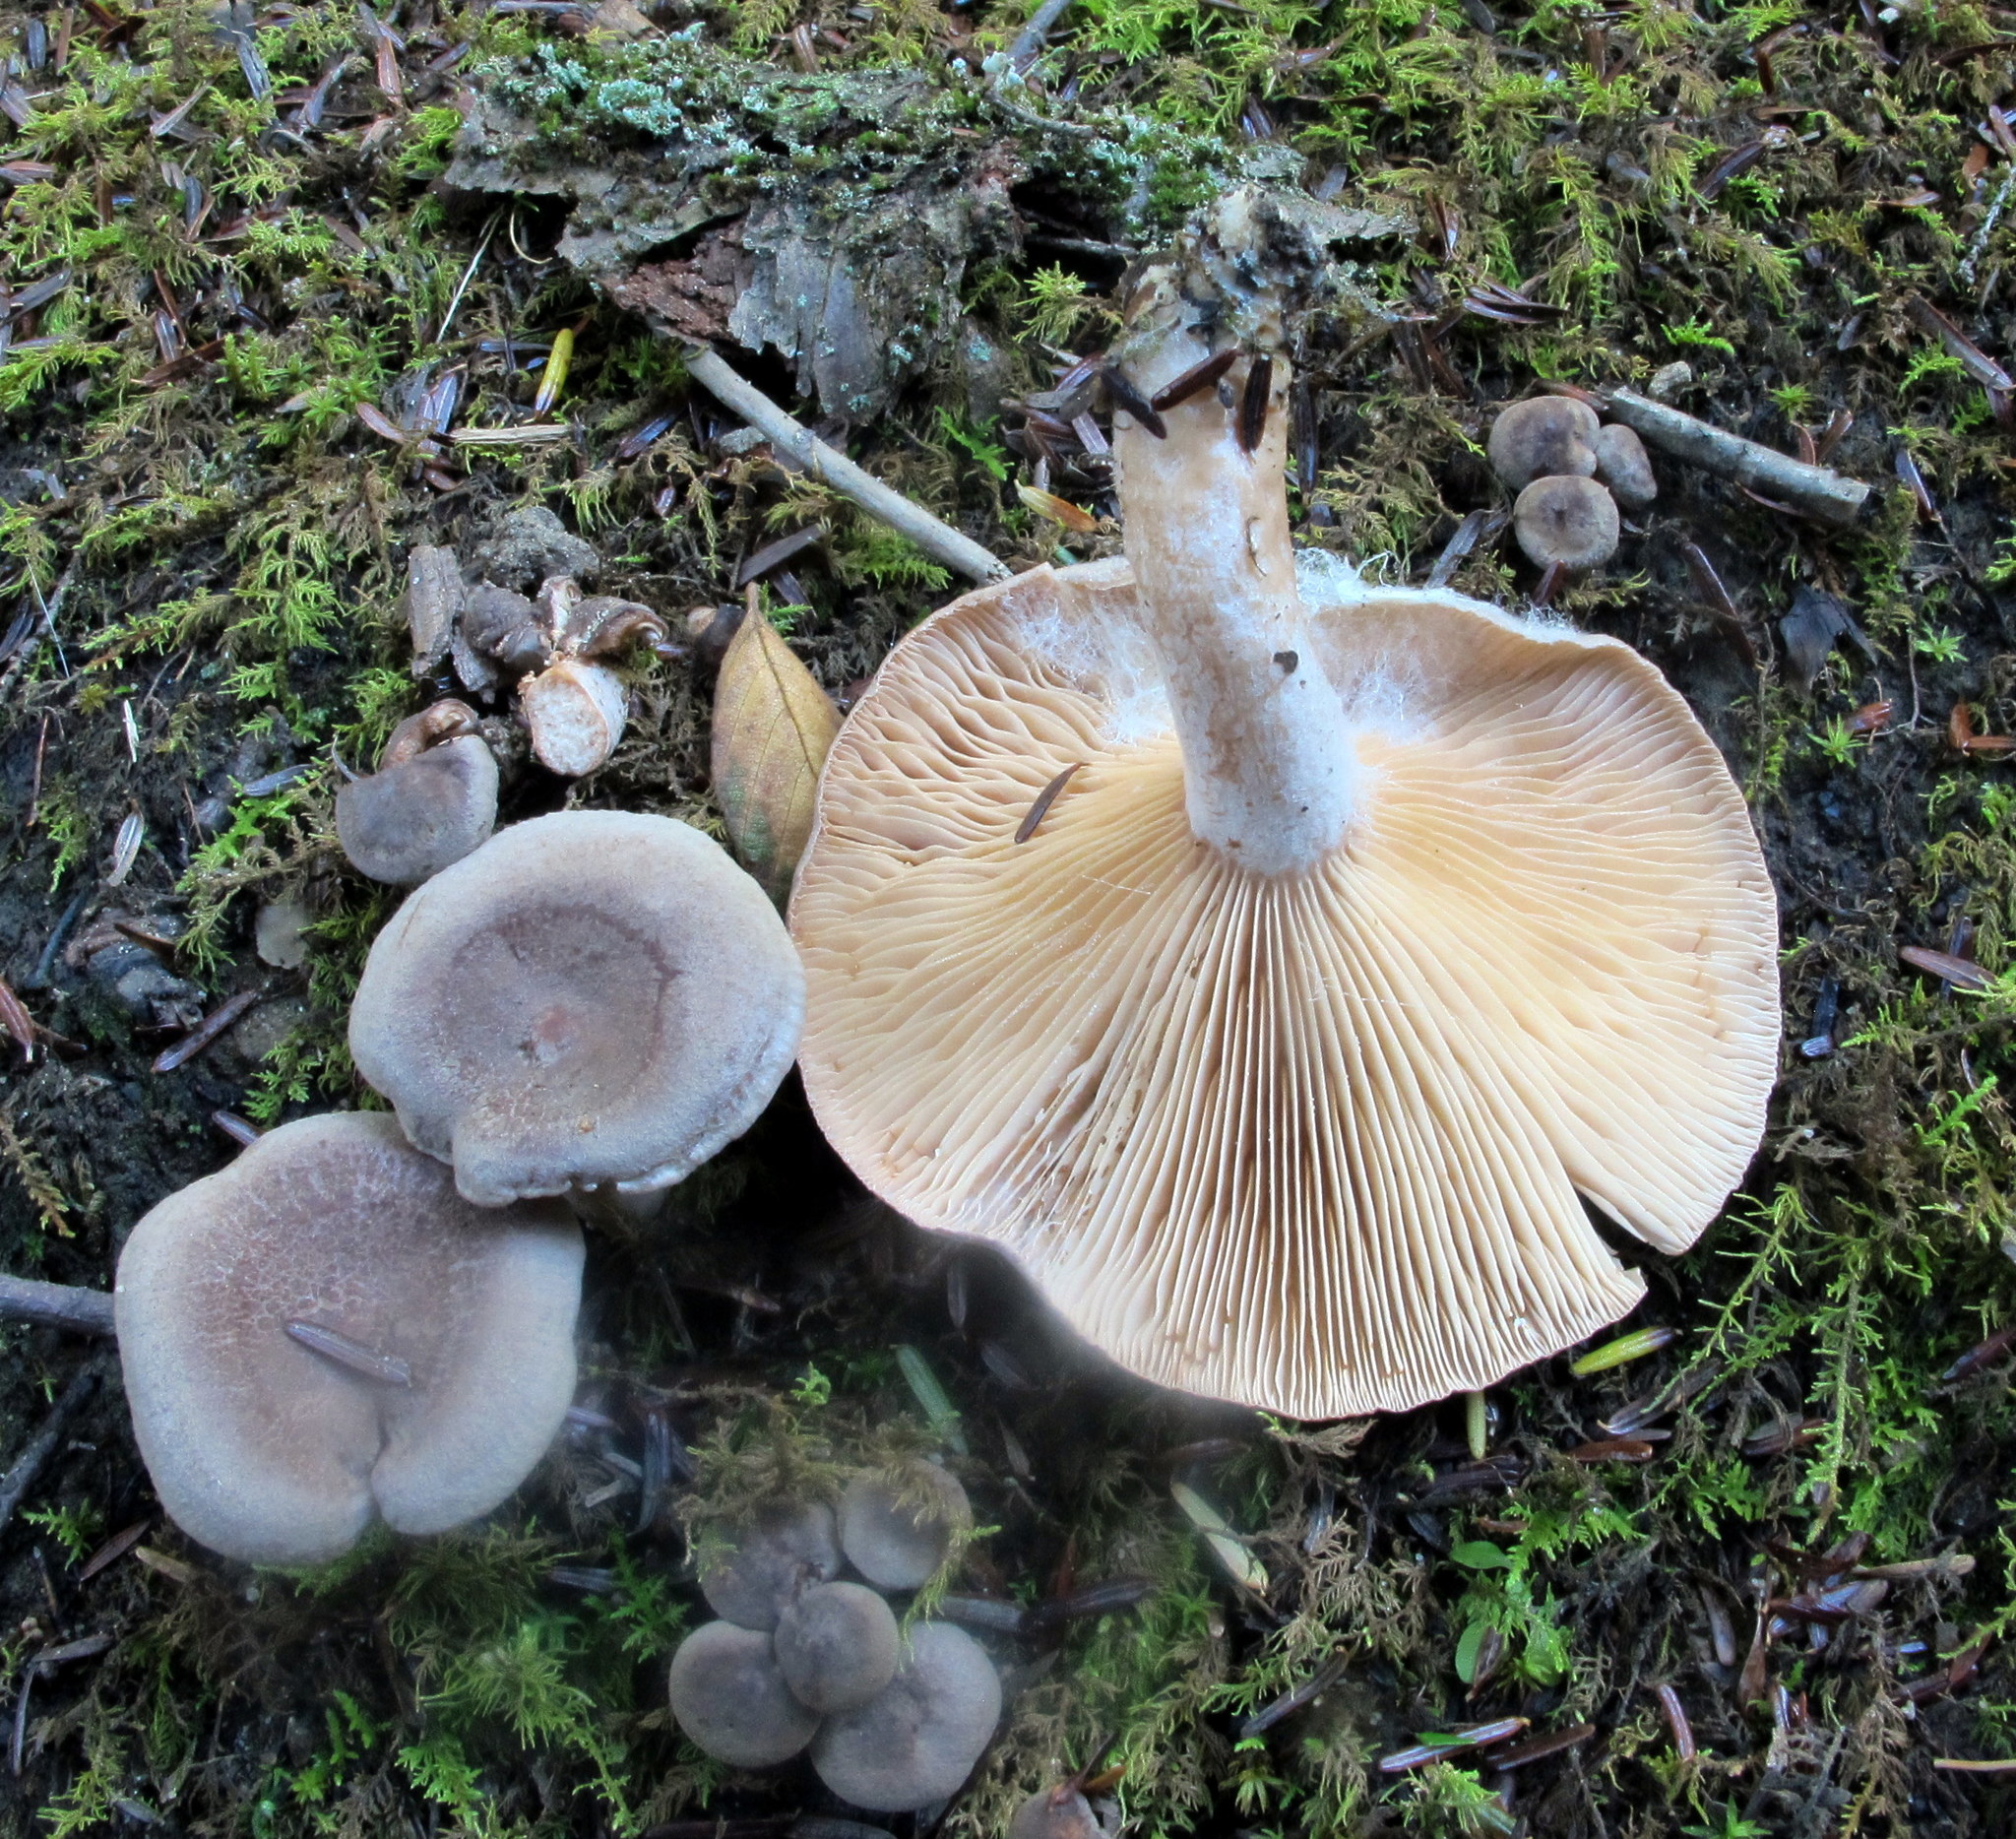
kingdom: Fungi
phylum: Basidiomycota
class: Agaricomycetes
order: Russulales
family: Russulaceae
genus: Lactarius
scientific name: Lactarius hibbardiae
